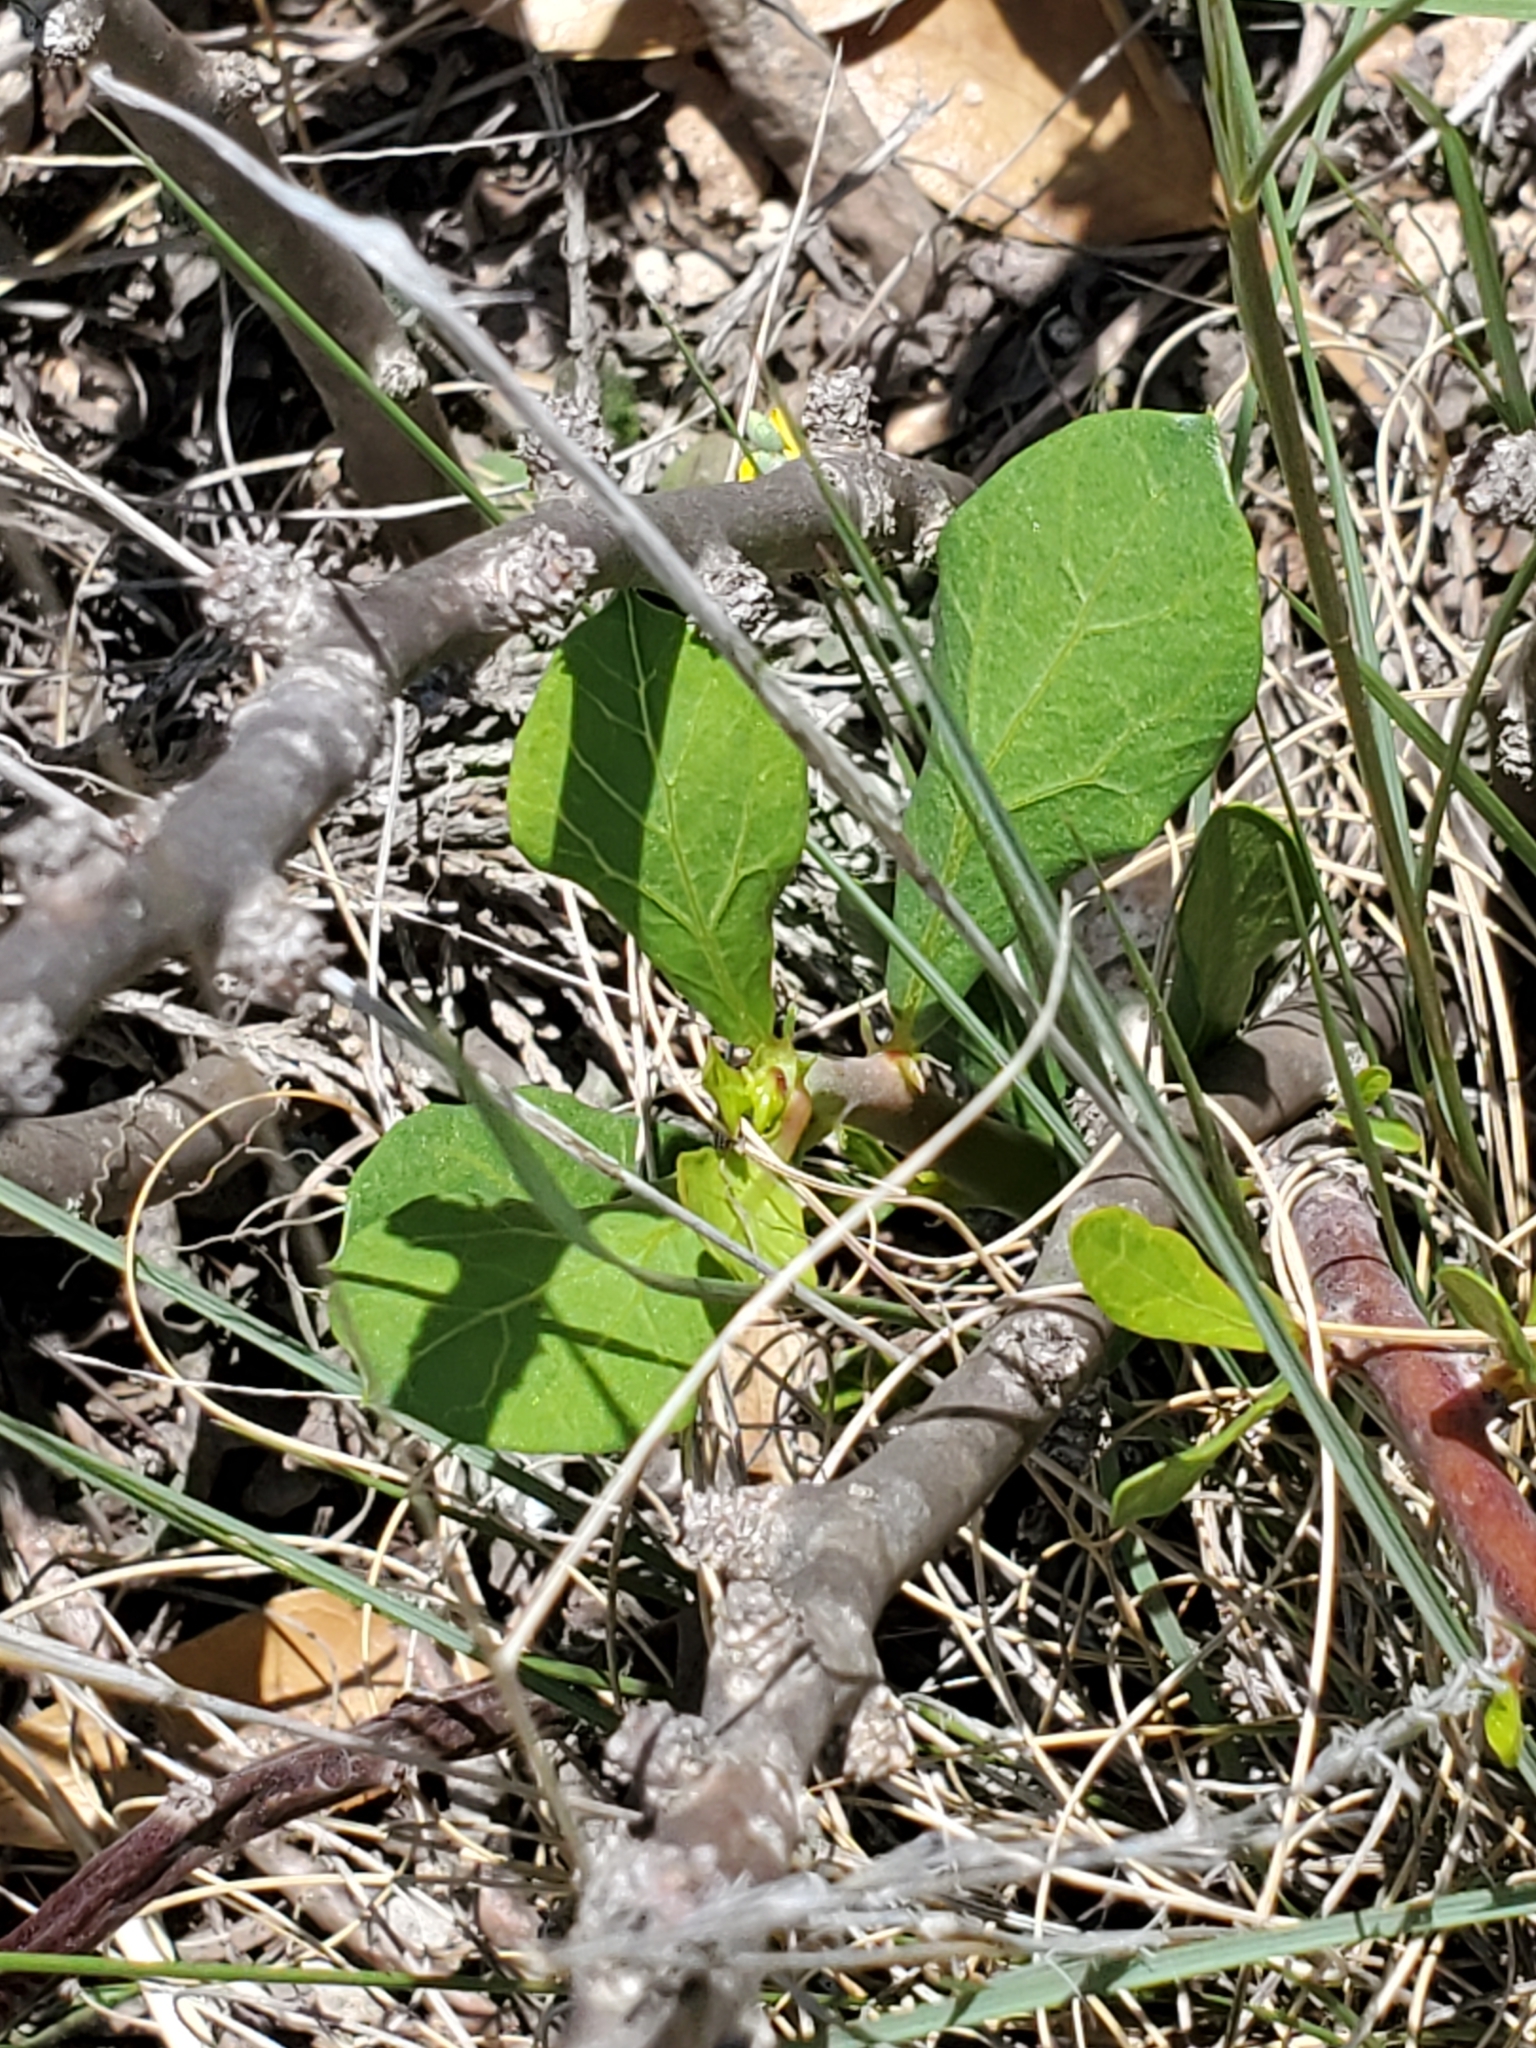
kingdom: Plantae
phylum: Tracheophyta
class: Magnoliopsida
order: Malpighiales
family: Euphorbiaceae
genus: Jatropha
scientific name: Jatropha dioica
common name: Leatherstem
